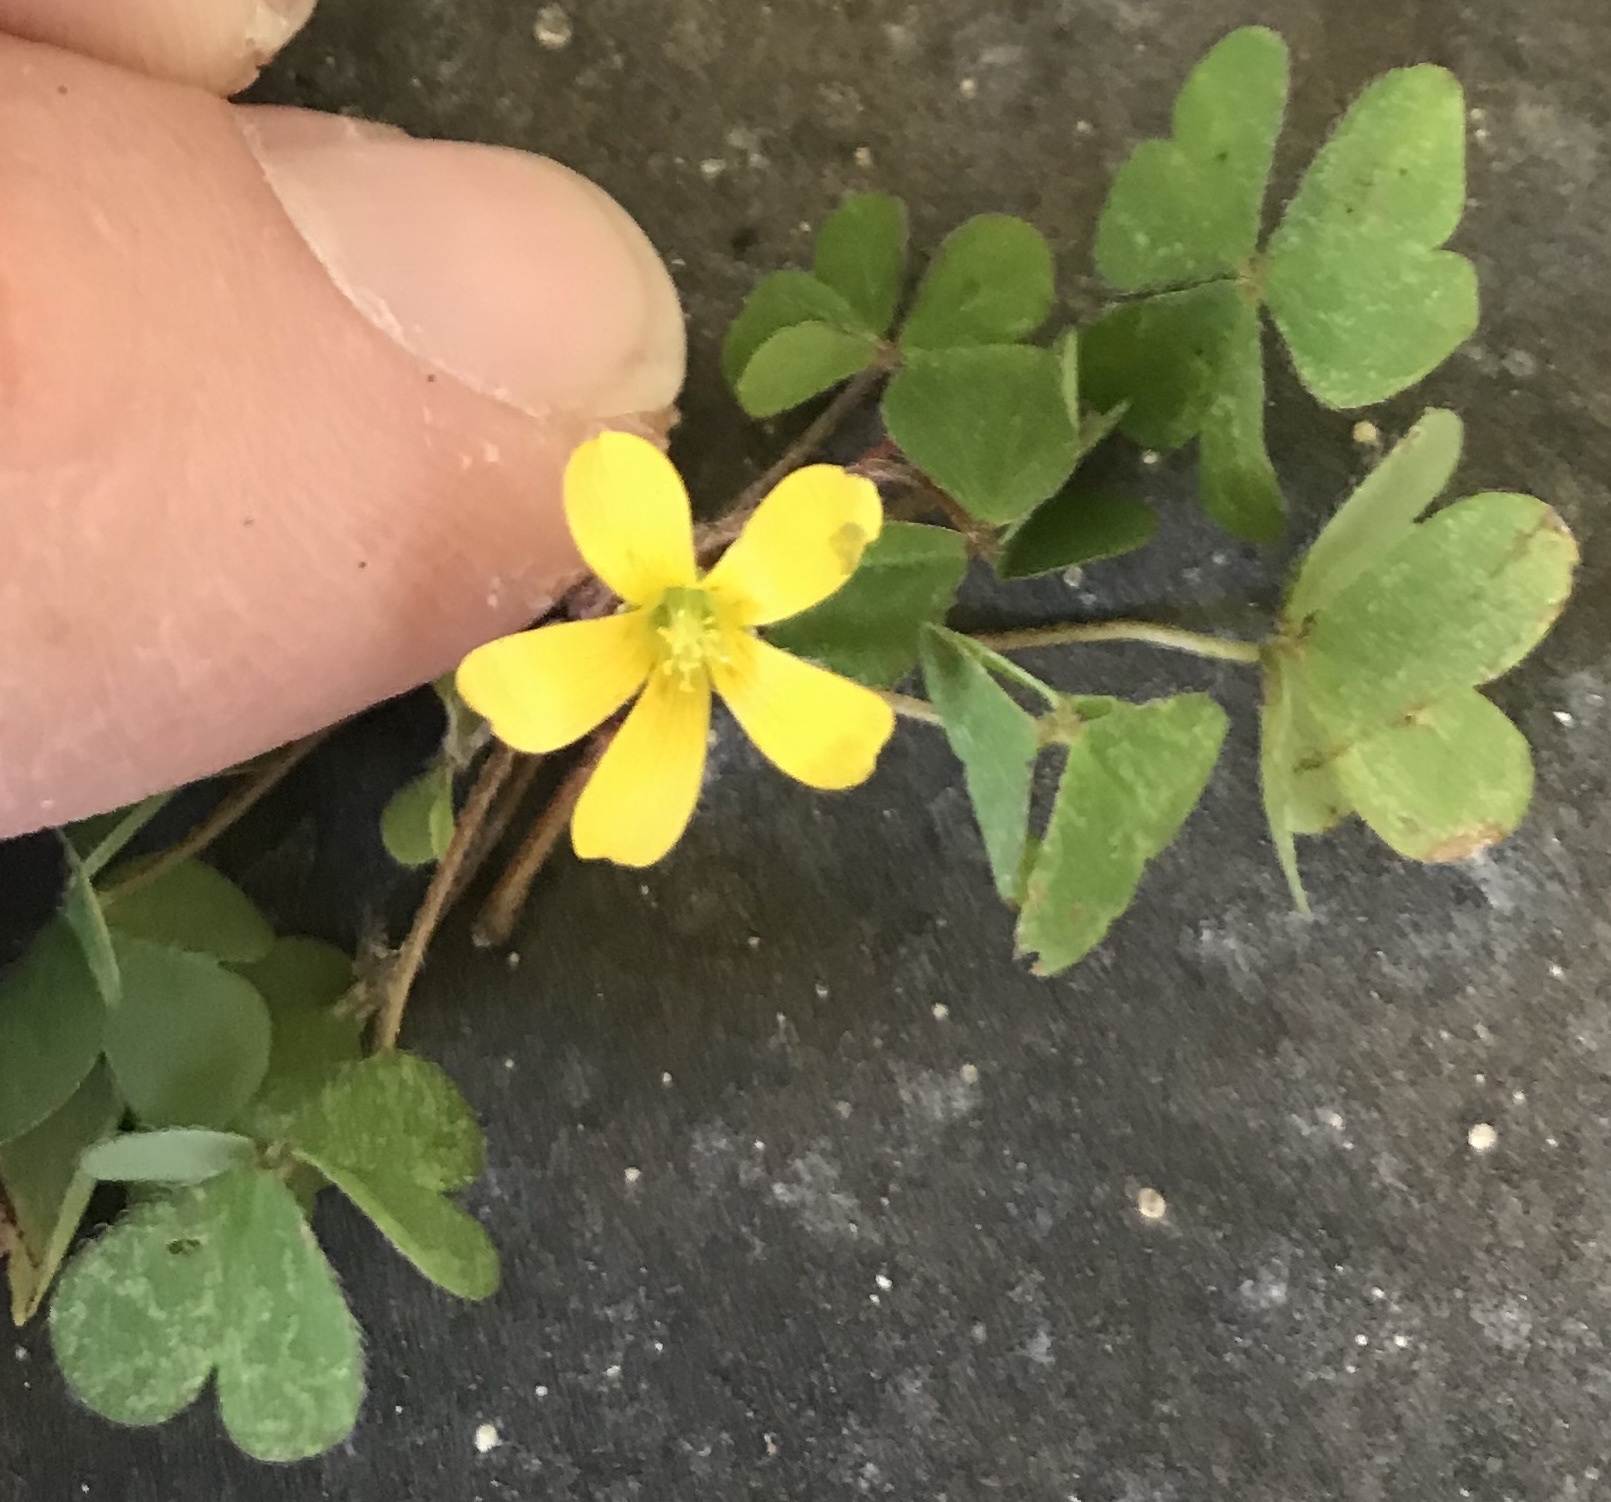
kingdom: Plantae
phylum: Tracheophyta
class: Magnoliopsida
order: Oxalidales
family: Oxalidaceae
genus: Oxalis
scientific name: Oxalis corniculata
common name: Procumbent yellow-sorrel
